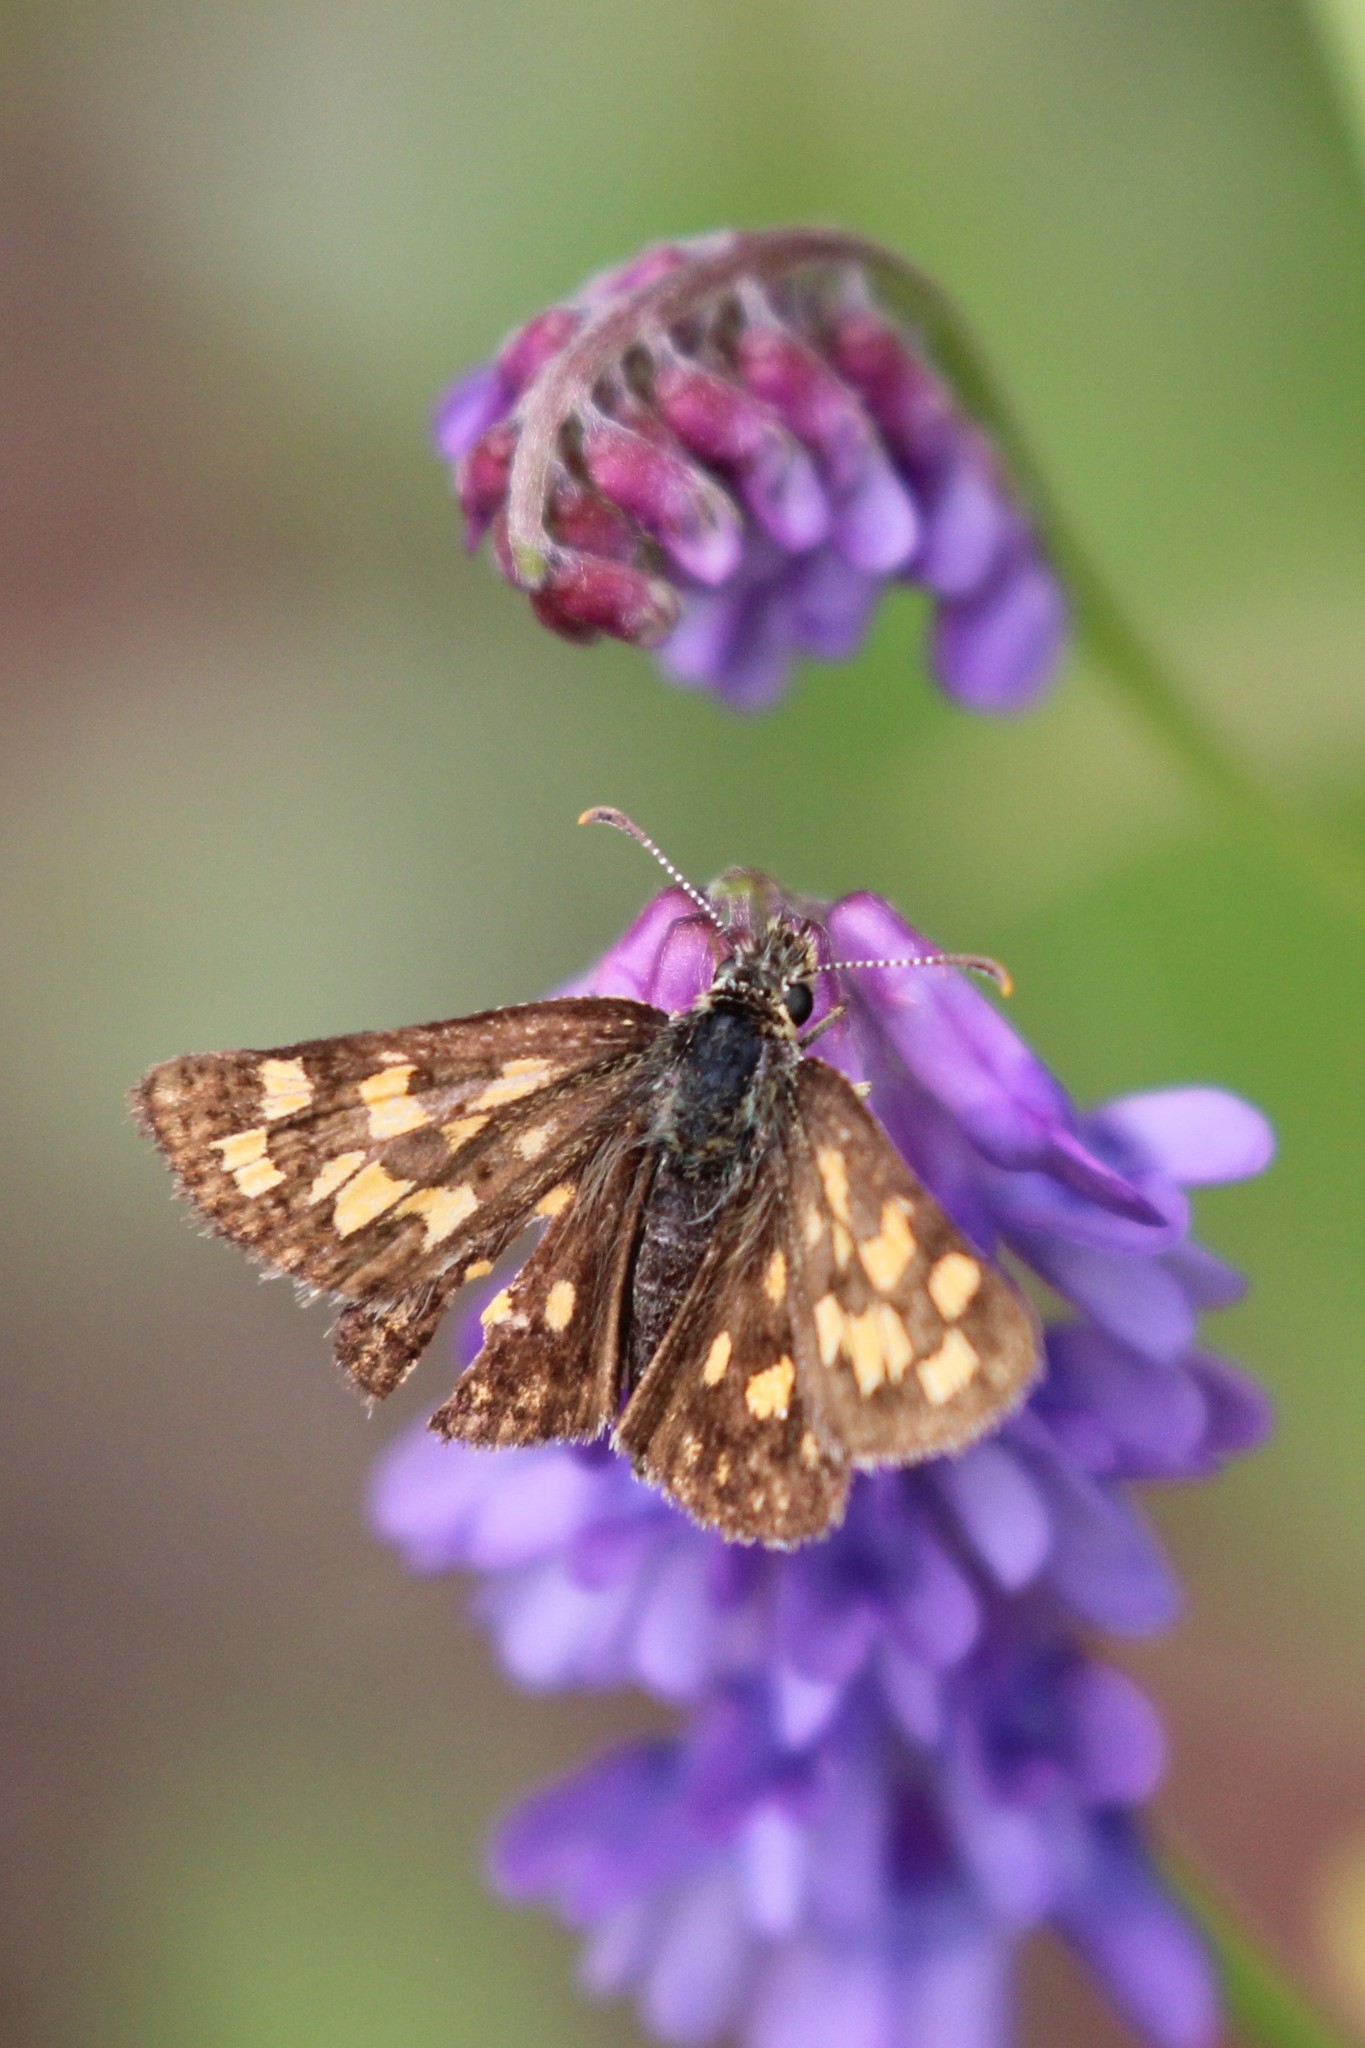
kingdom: Animalia
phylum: Arthropoda
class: Insecta
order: Lepidoptera
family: Hesperiidae
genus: Carterocephalus
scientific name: Carterocephalus mandan
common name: Arctic skipperling
